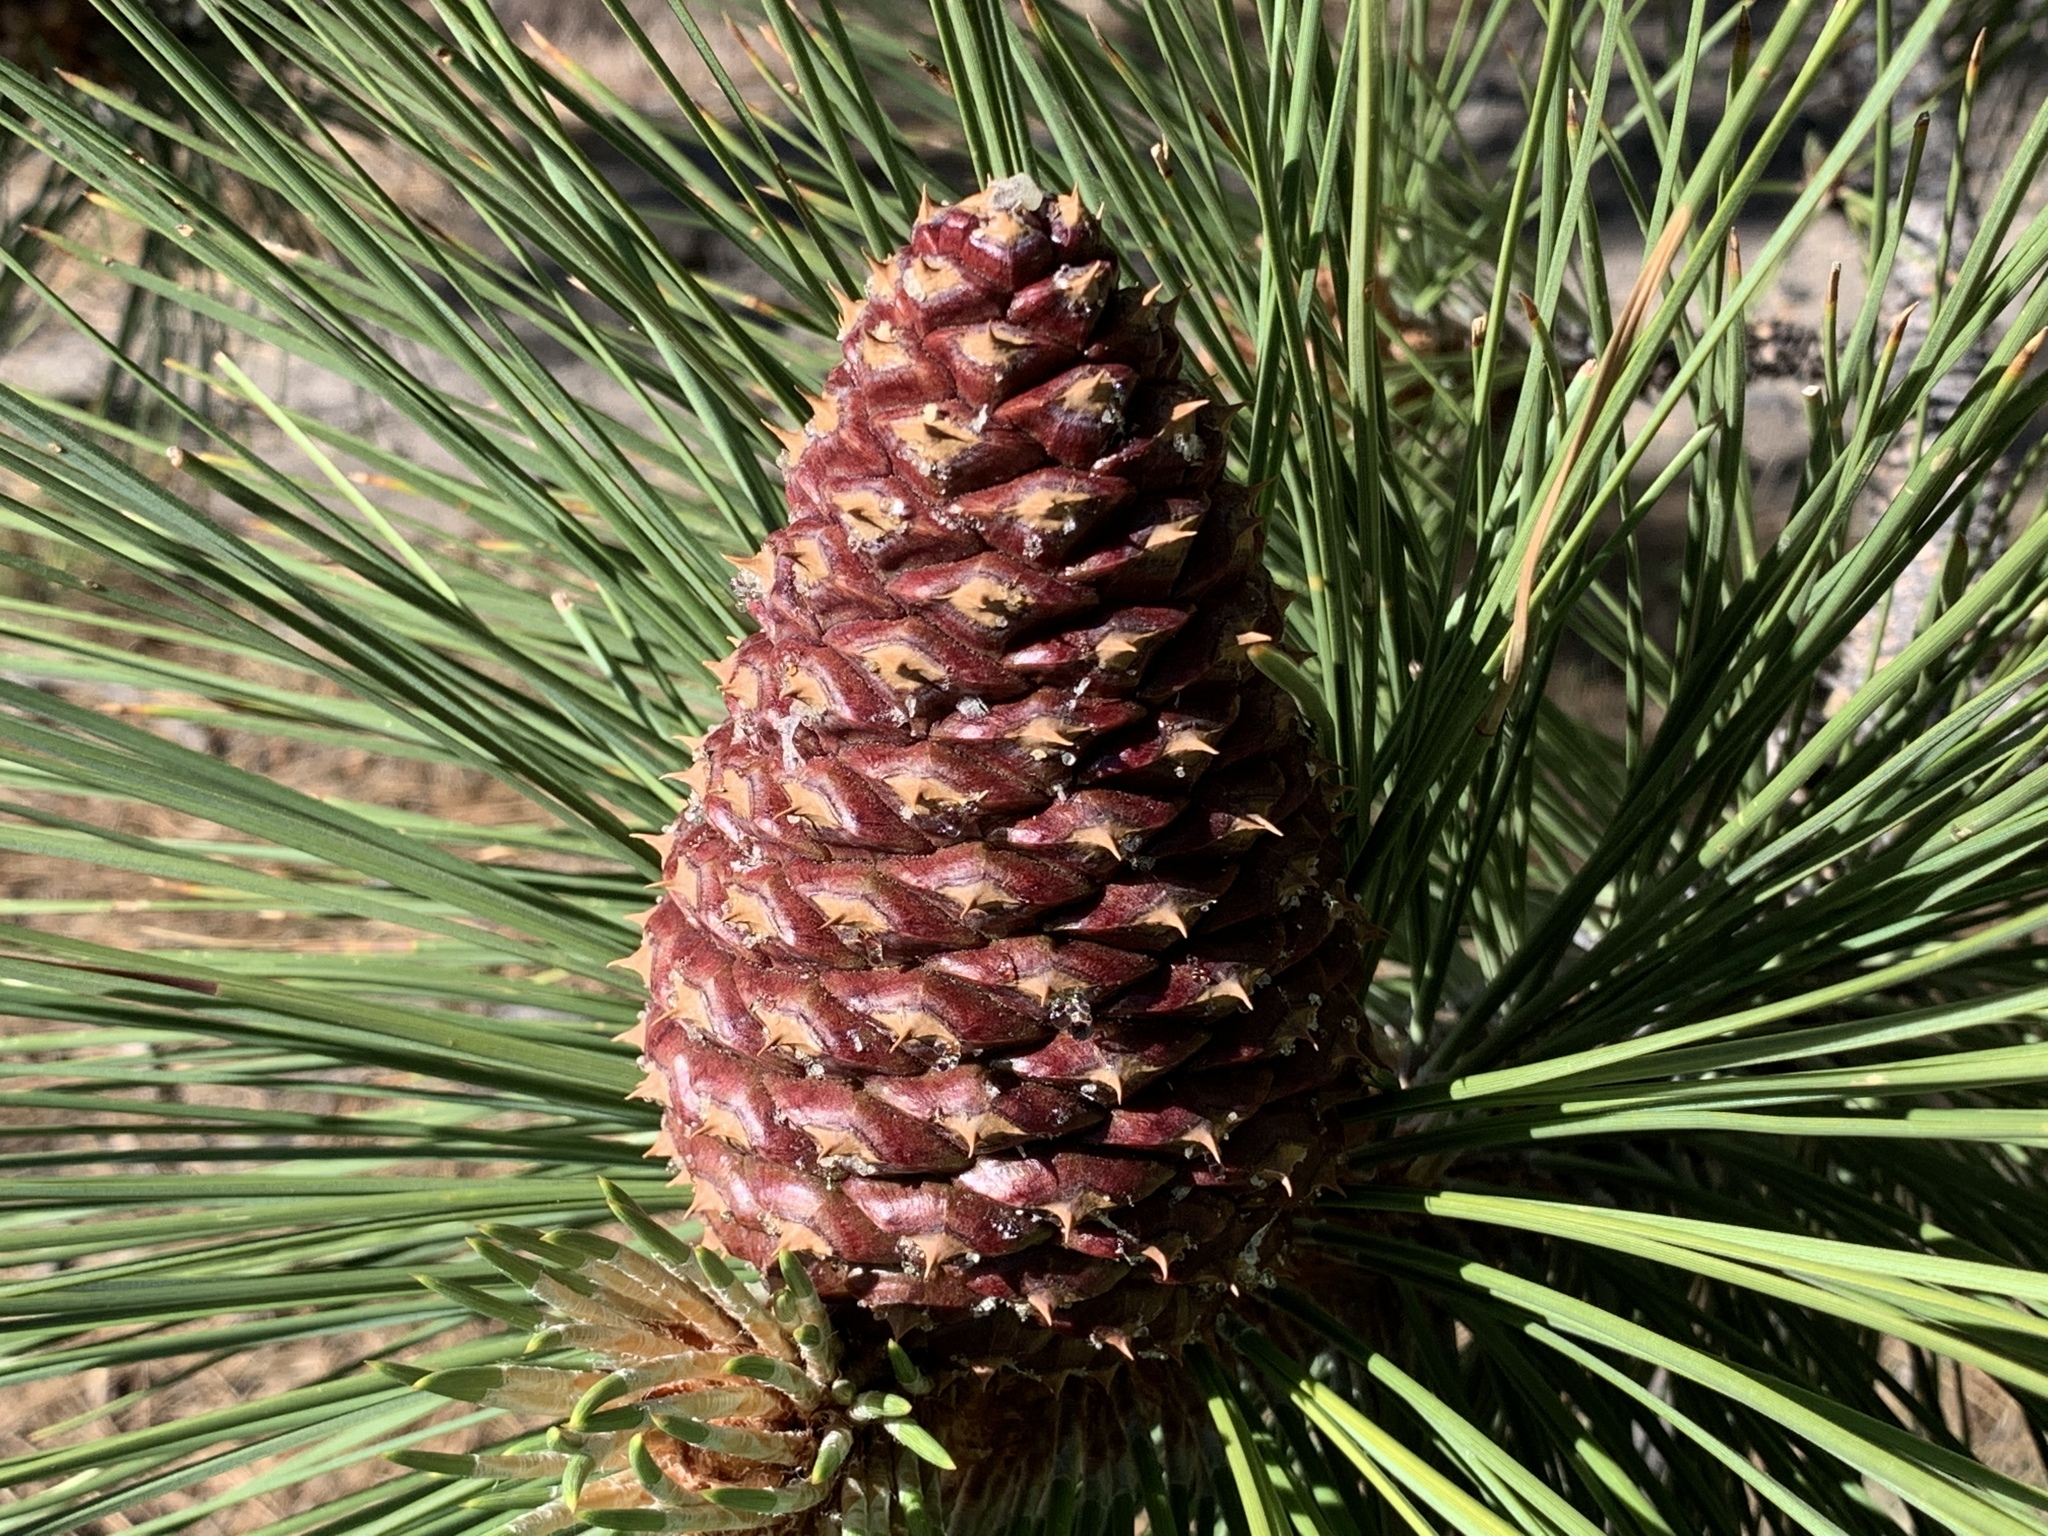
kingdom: Plantae
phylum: Tracheophyta
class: Pinopsida
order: Pinales
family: Pinaceae
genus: Pinus
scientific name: Pinus jeffreyi
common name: Jeffrey pine
